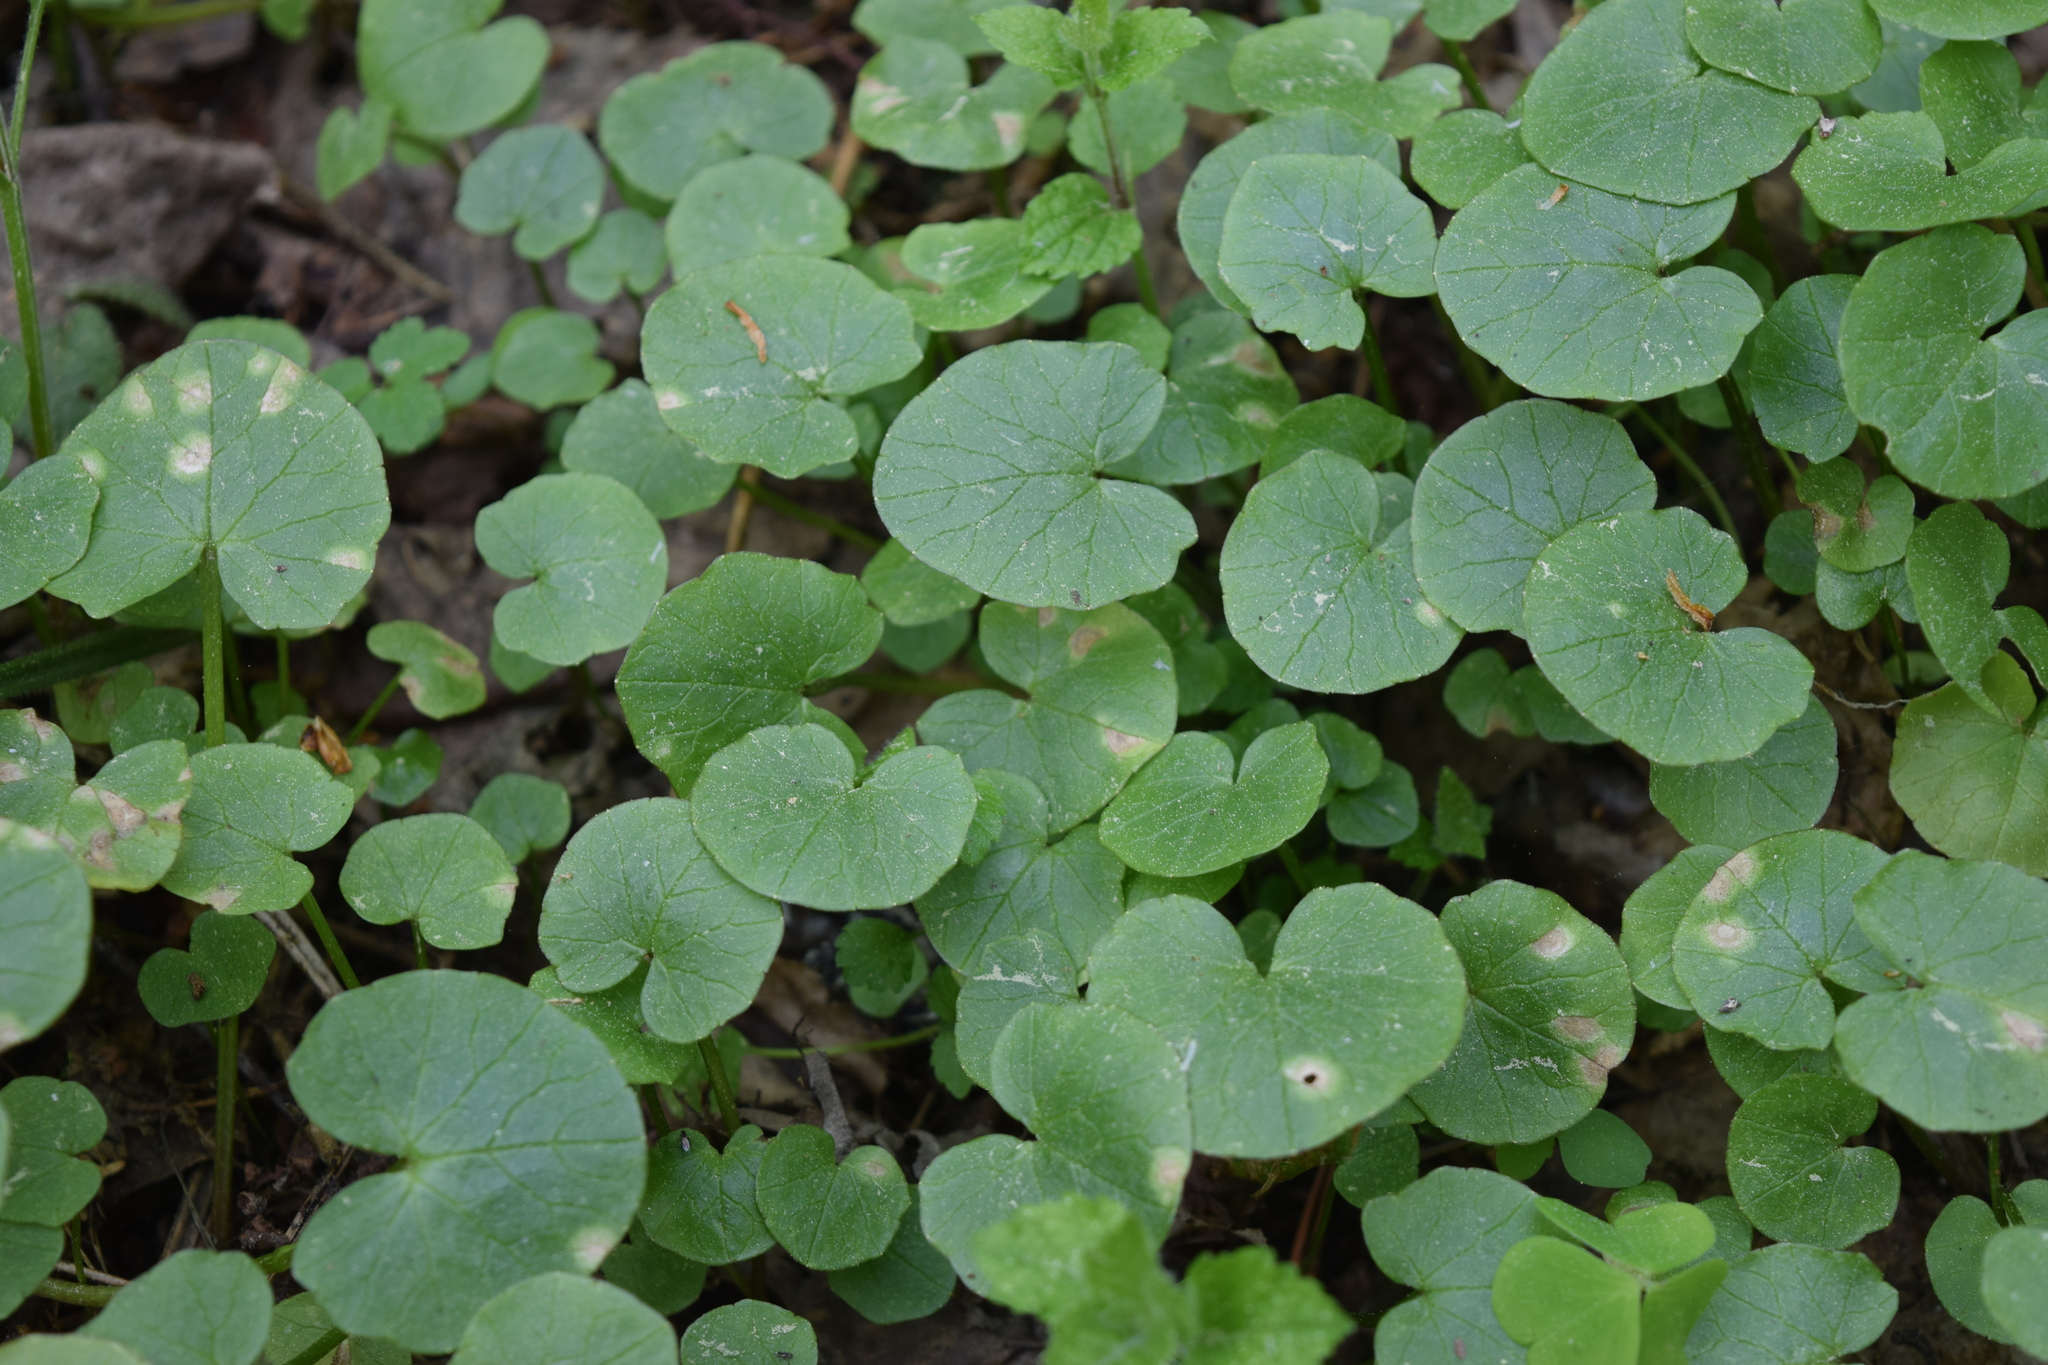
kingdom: Plantae
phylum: Tracheophyta
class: Magnoliopsida
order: Ranunculales
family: Ranunculaceae
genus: Ficaria
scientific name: Ficaria verna
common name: Lesser celandine
